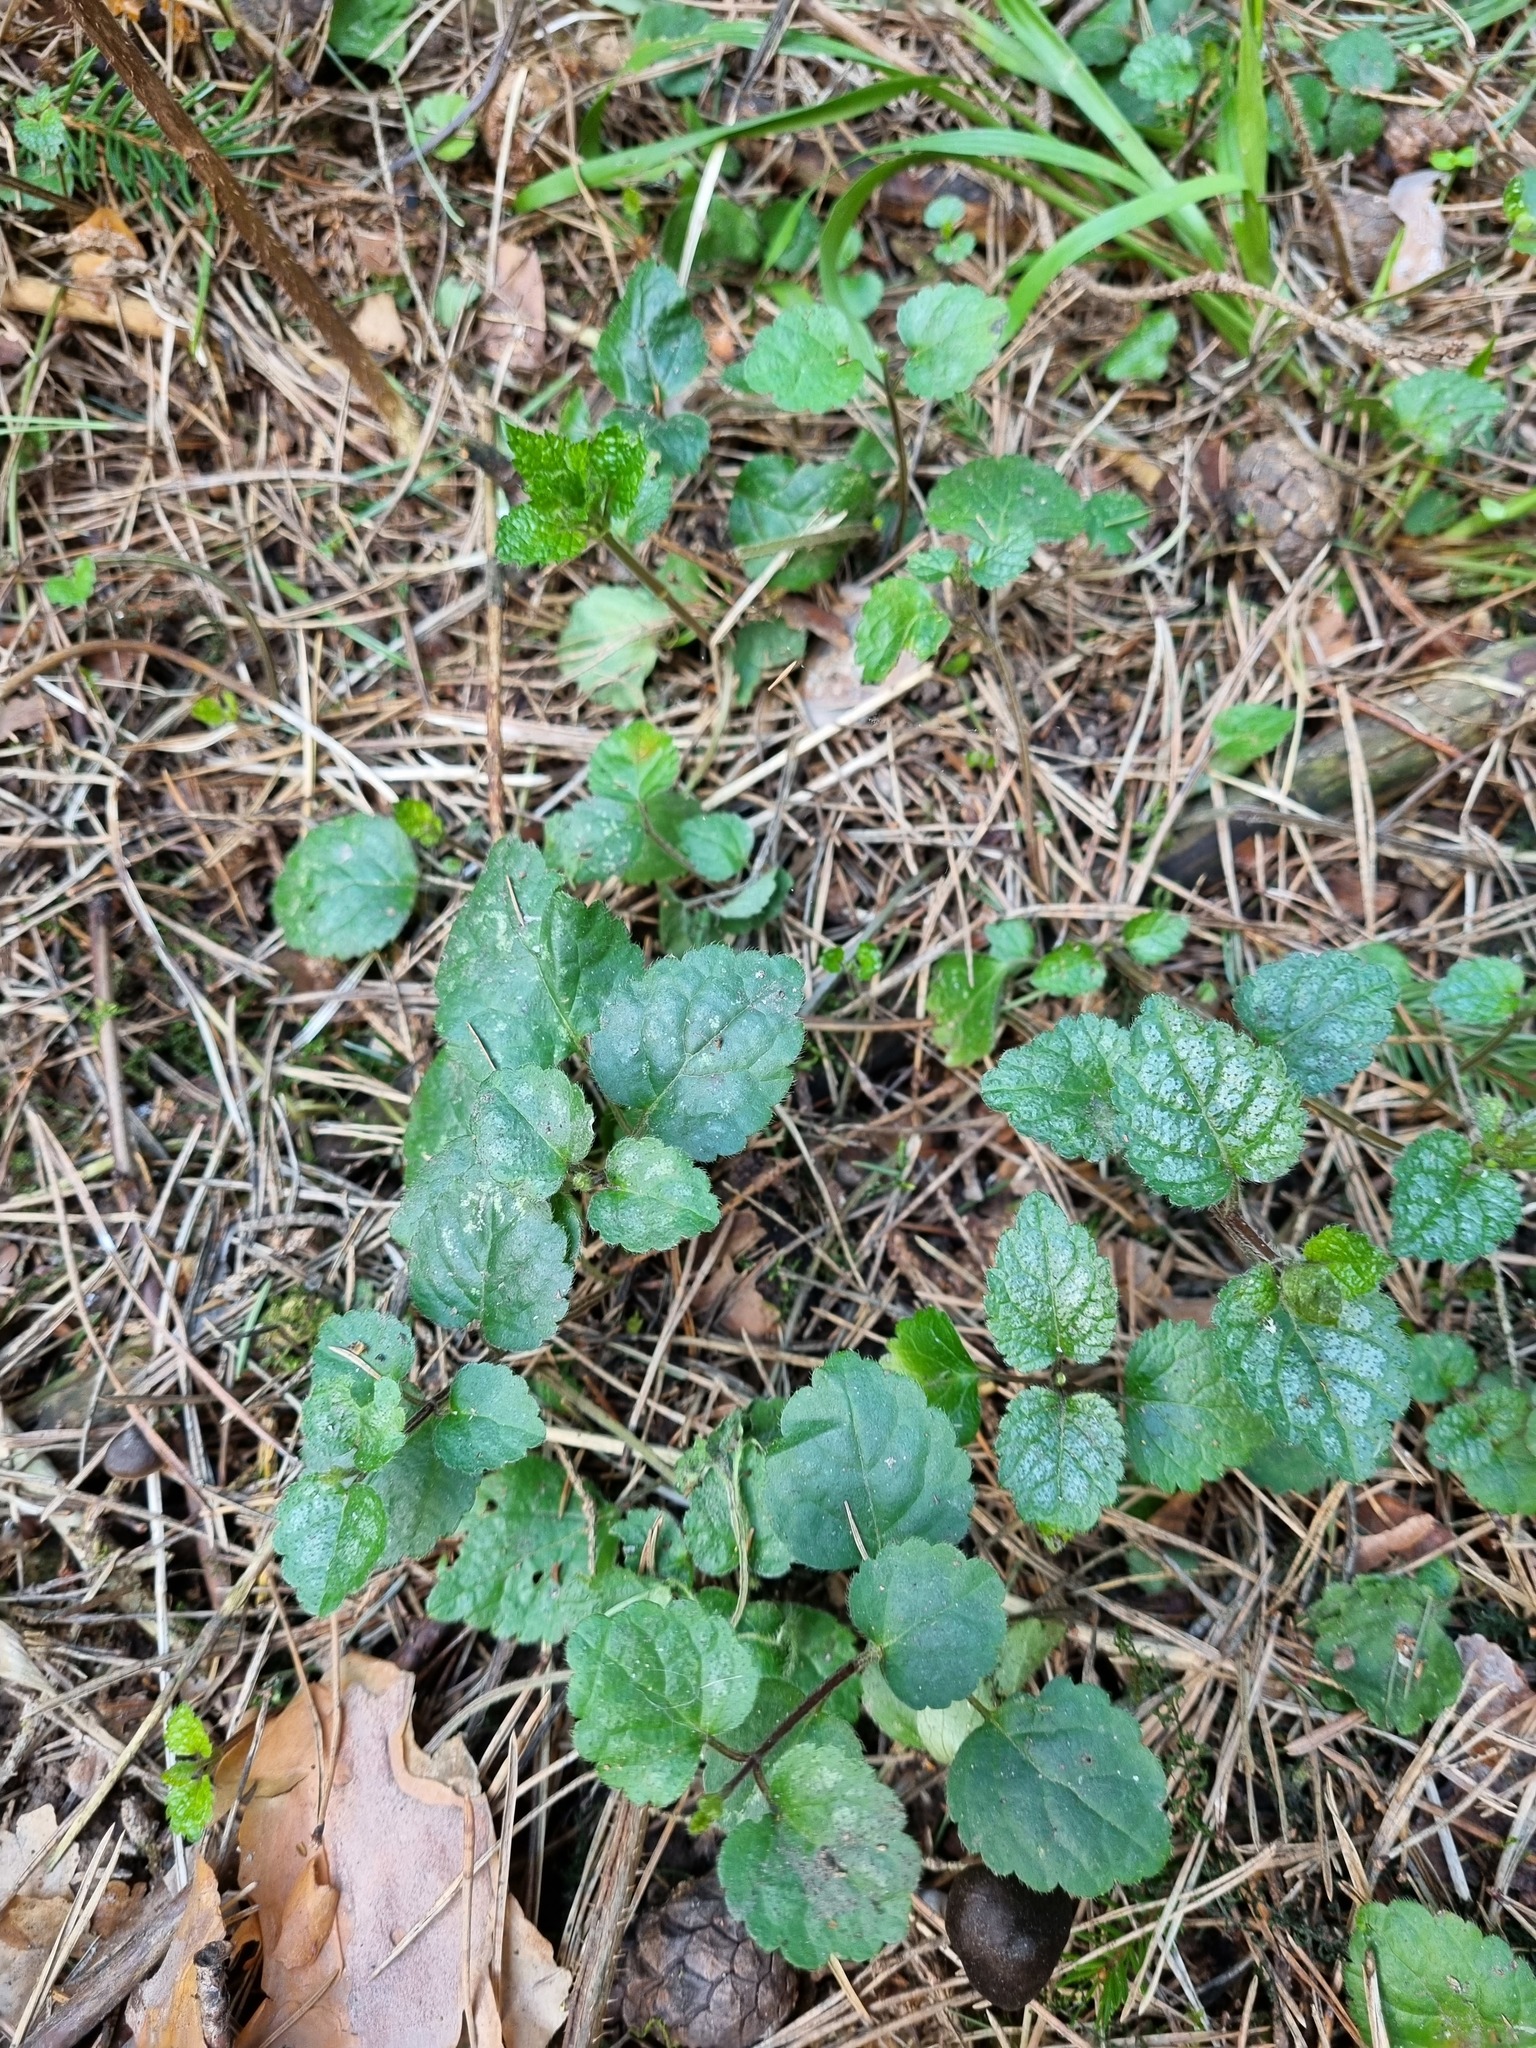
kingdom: Plantae
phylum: Tracheophyta
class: Magnoliopsida
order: Lamiales
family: Lamiaceae
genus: Lamium
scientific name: Lamium galeobdolon
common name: Yellow archangel
